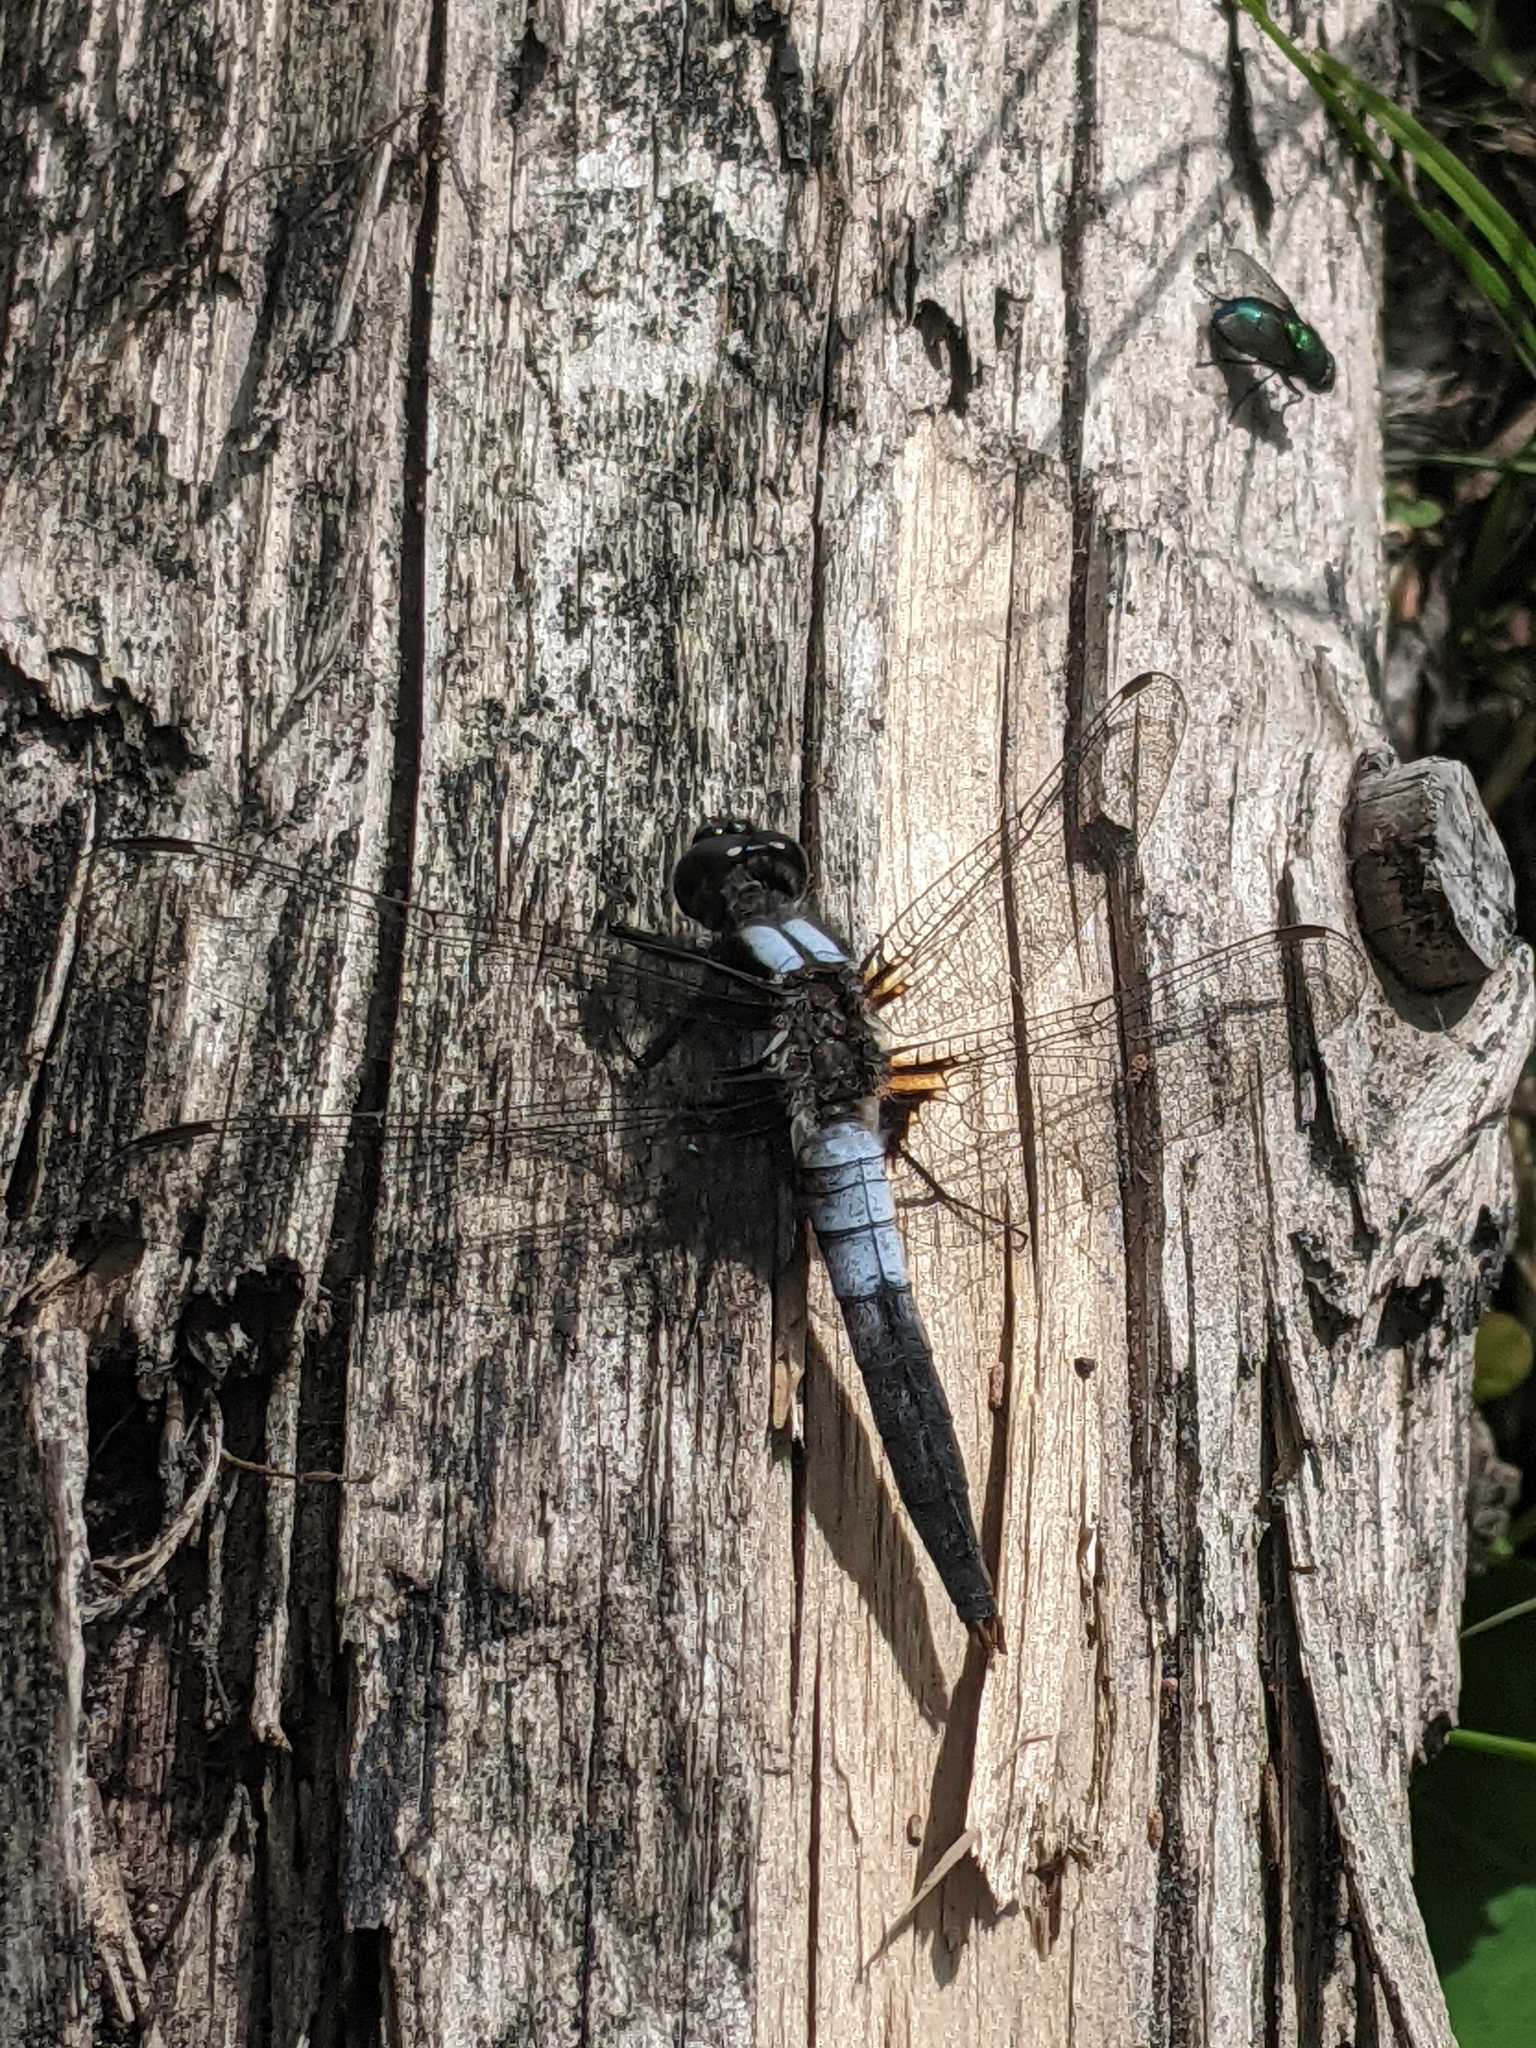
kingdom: Animalia
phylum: Arthropoda
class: Insecta
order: Odonata
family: Libellulidae
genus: Ladona
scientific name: Ladona julia
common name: Chalk-fronted corporal
